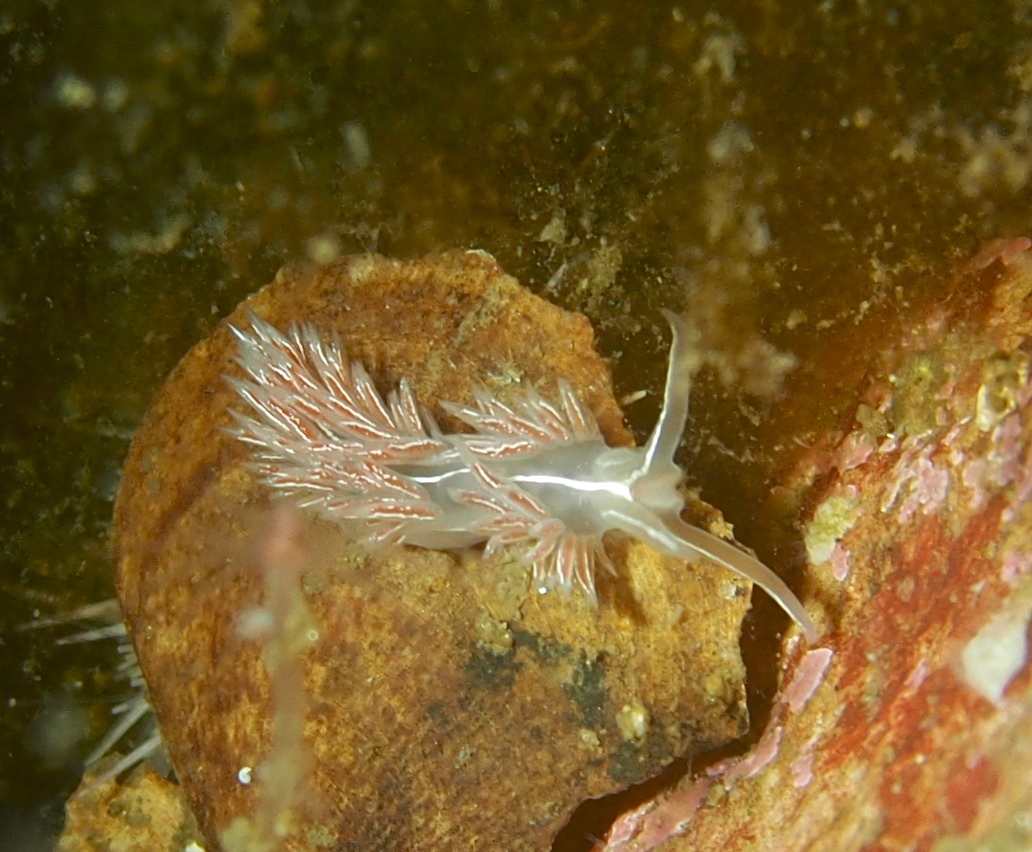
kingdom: Animalia
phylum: Mollusca
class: Gastropoda
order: Nudibranchia
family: Coryphellidae
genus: Coryphella
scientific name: Coryphella chriskaugei
